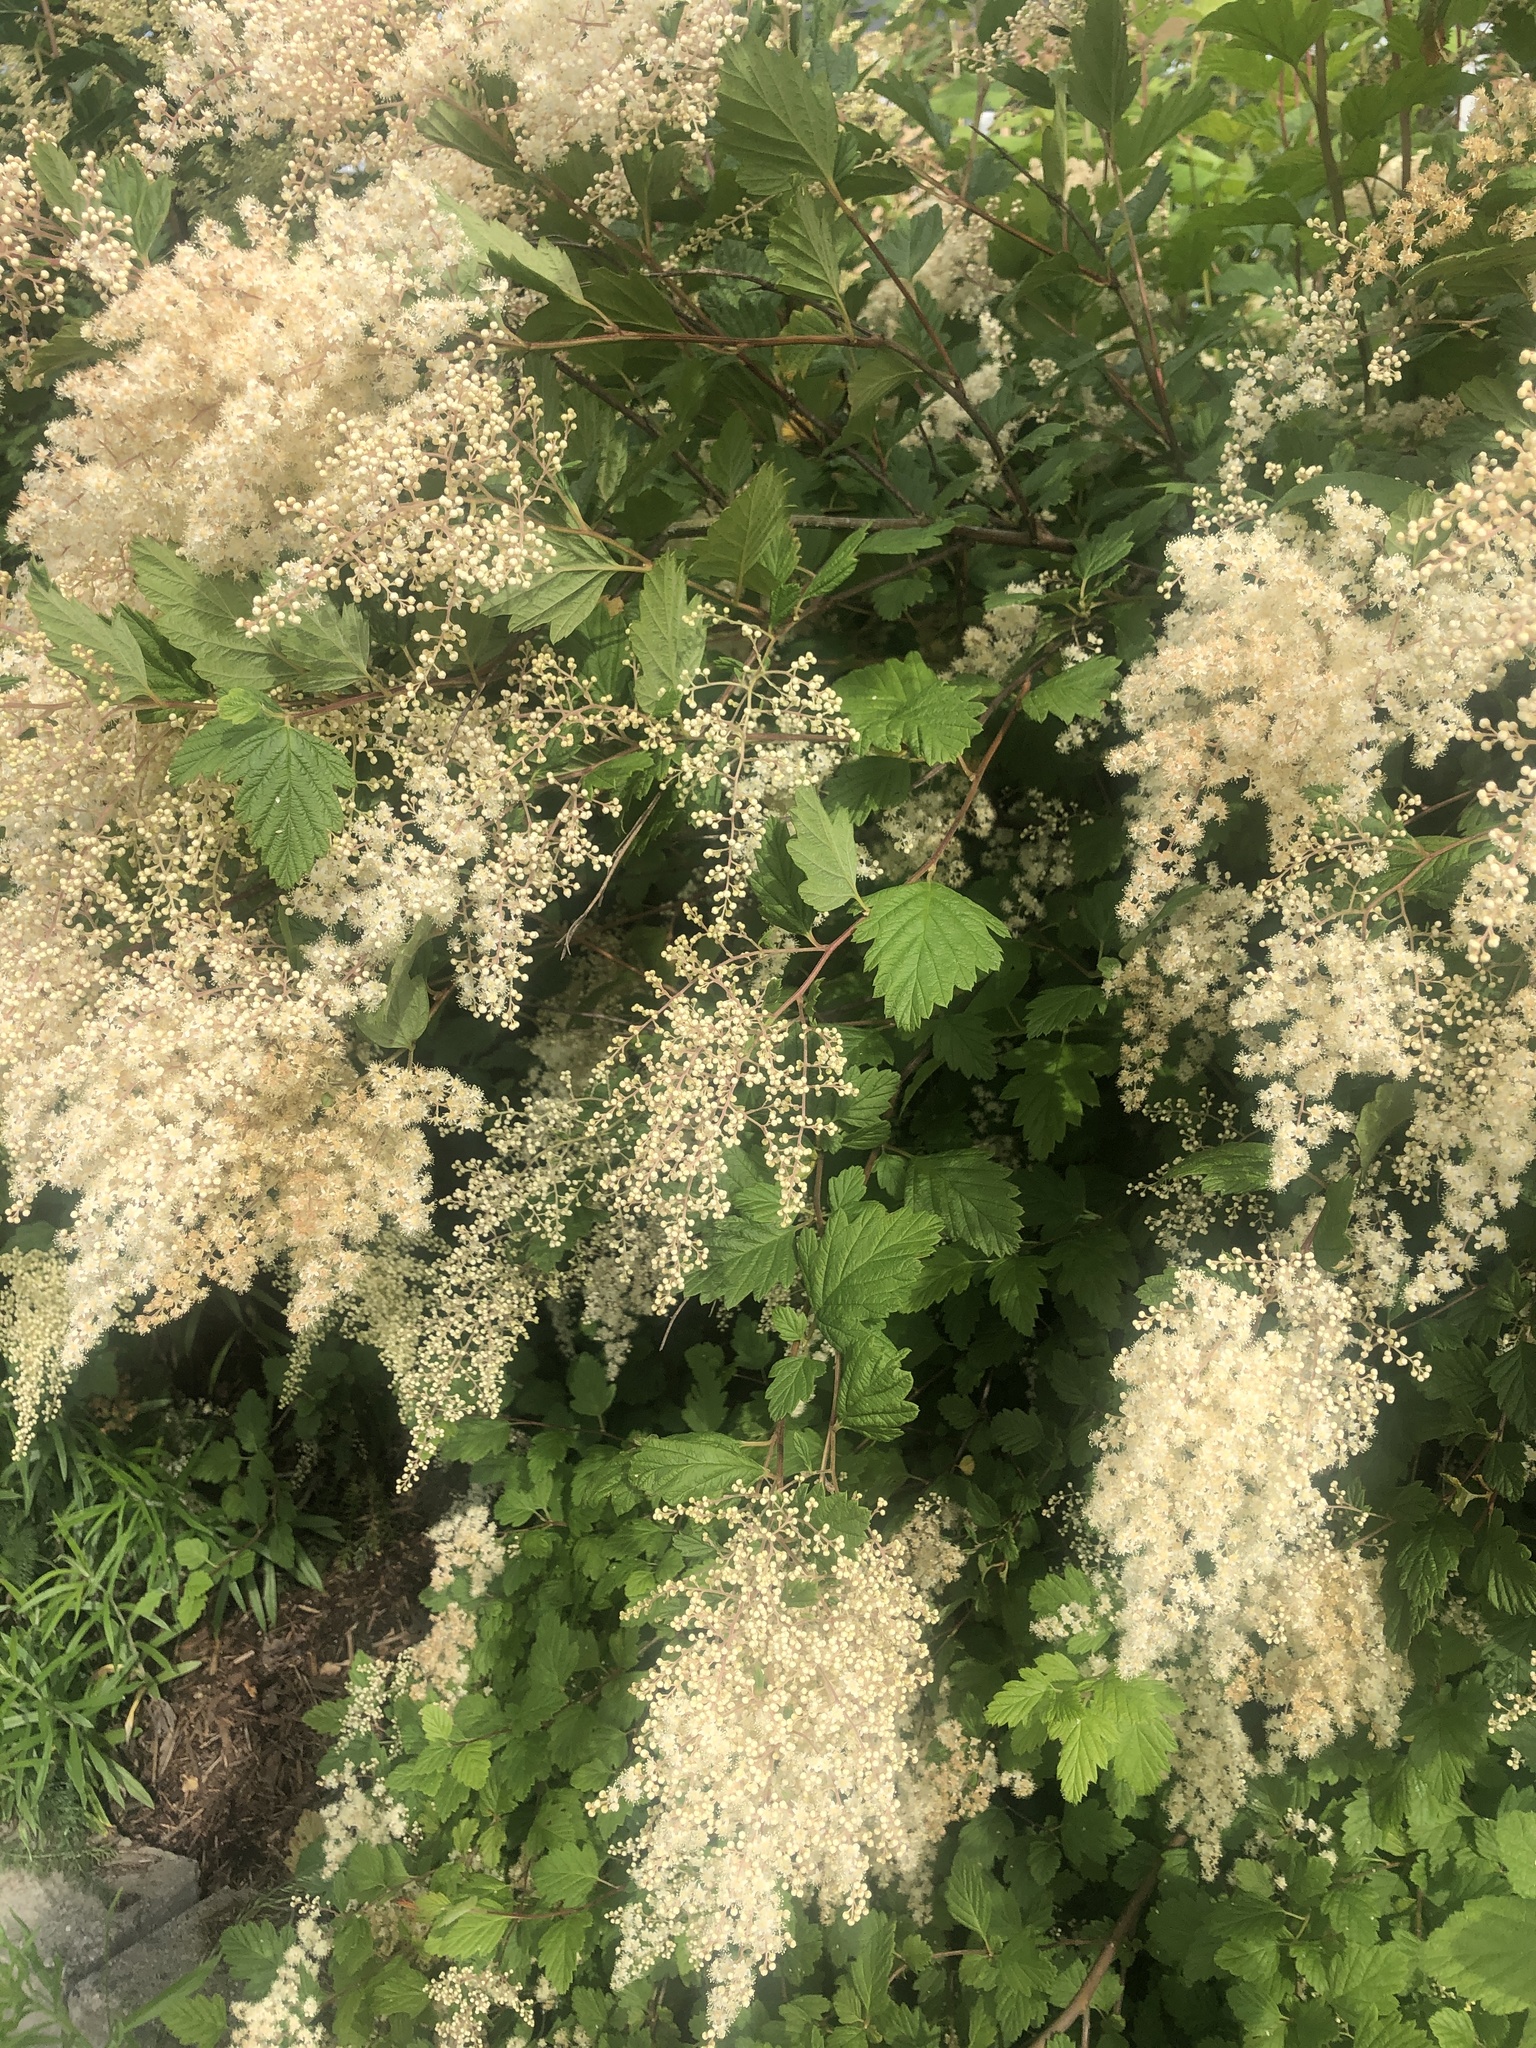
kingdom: Plantae
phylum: Tracheophyta
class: Magnoliopsida
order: Rosales
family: Rosaceae
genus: Holodiscus
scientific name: Holodiscus discolor
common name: Oceanspray
